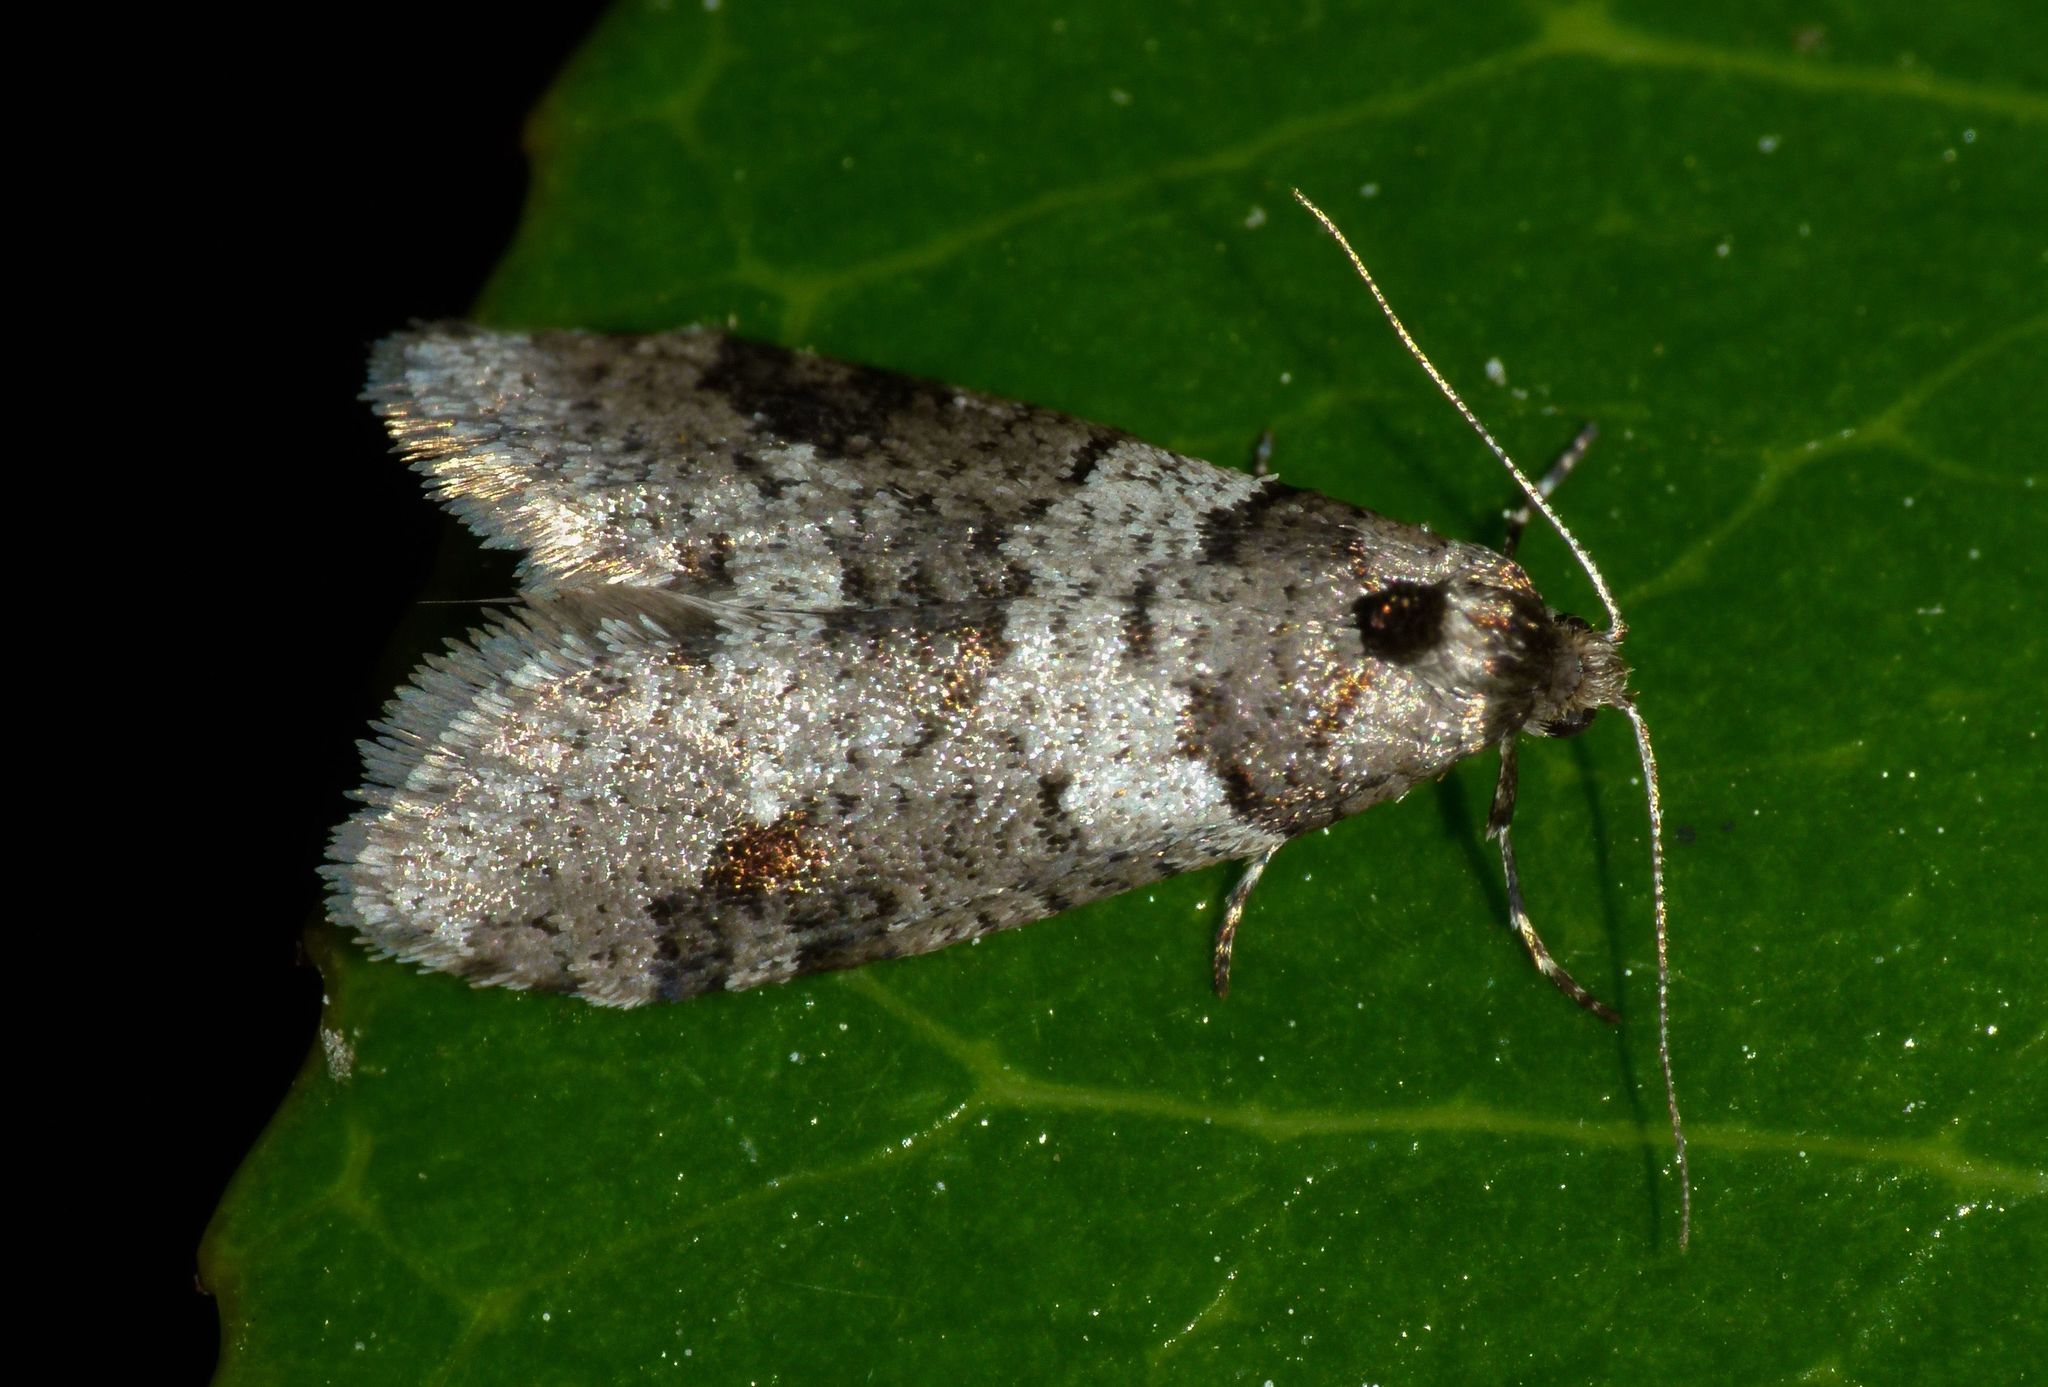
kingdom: Animalia
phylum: Arthropoda
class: Insecta
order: Lepidoptera
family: Psychidae
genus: Lepidoscia
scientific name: Lepidoscia heliochares
